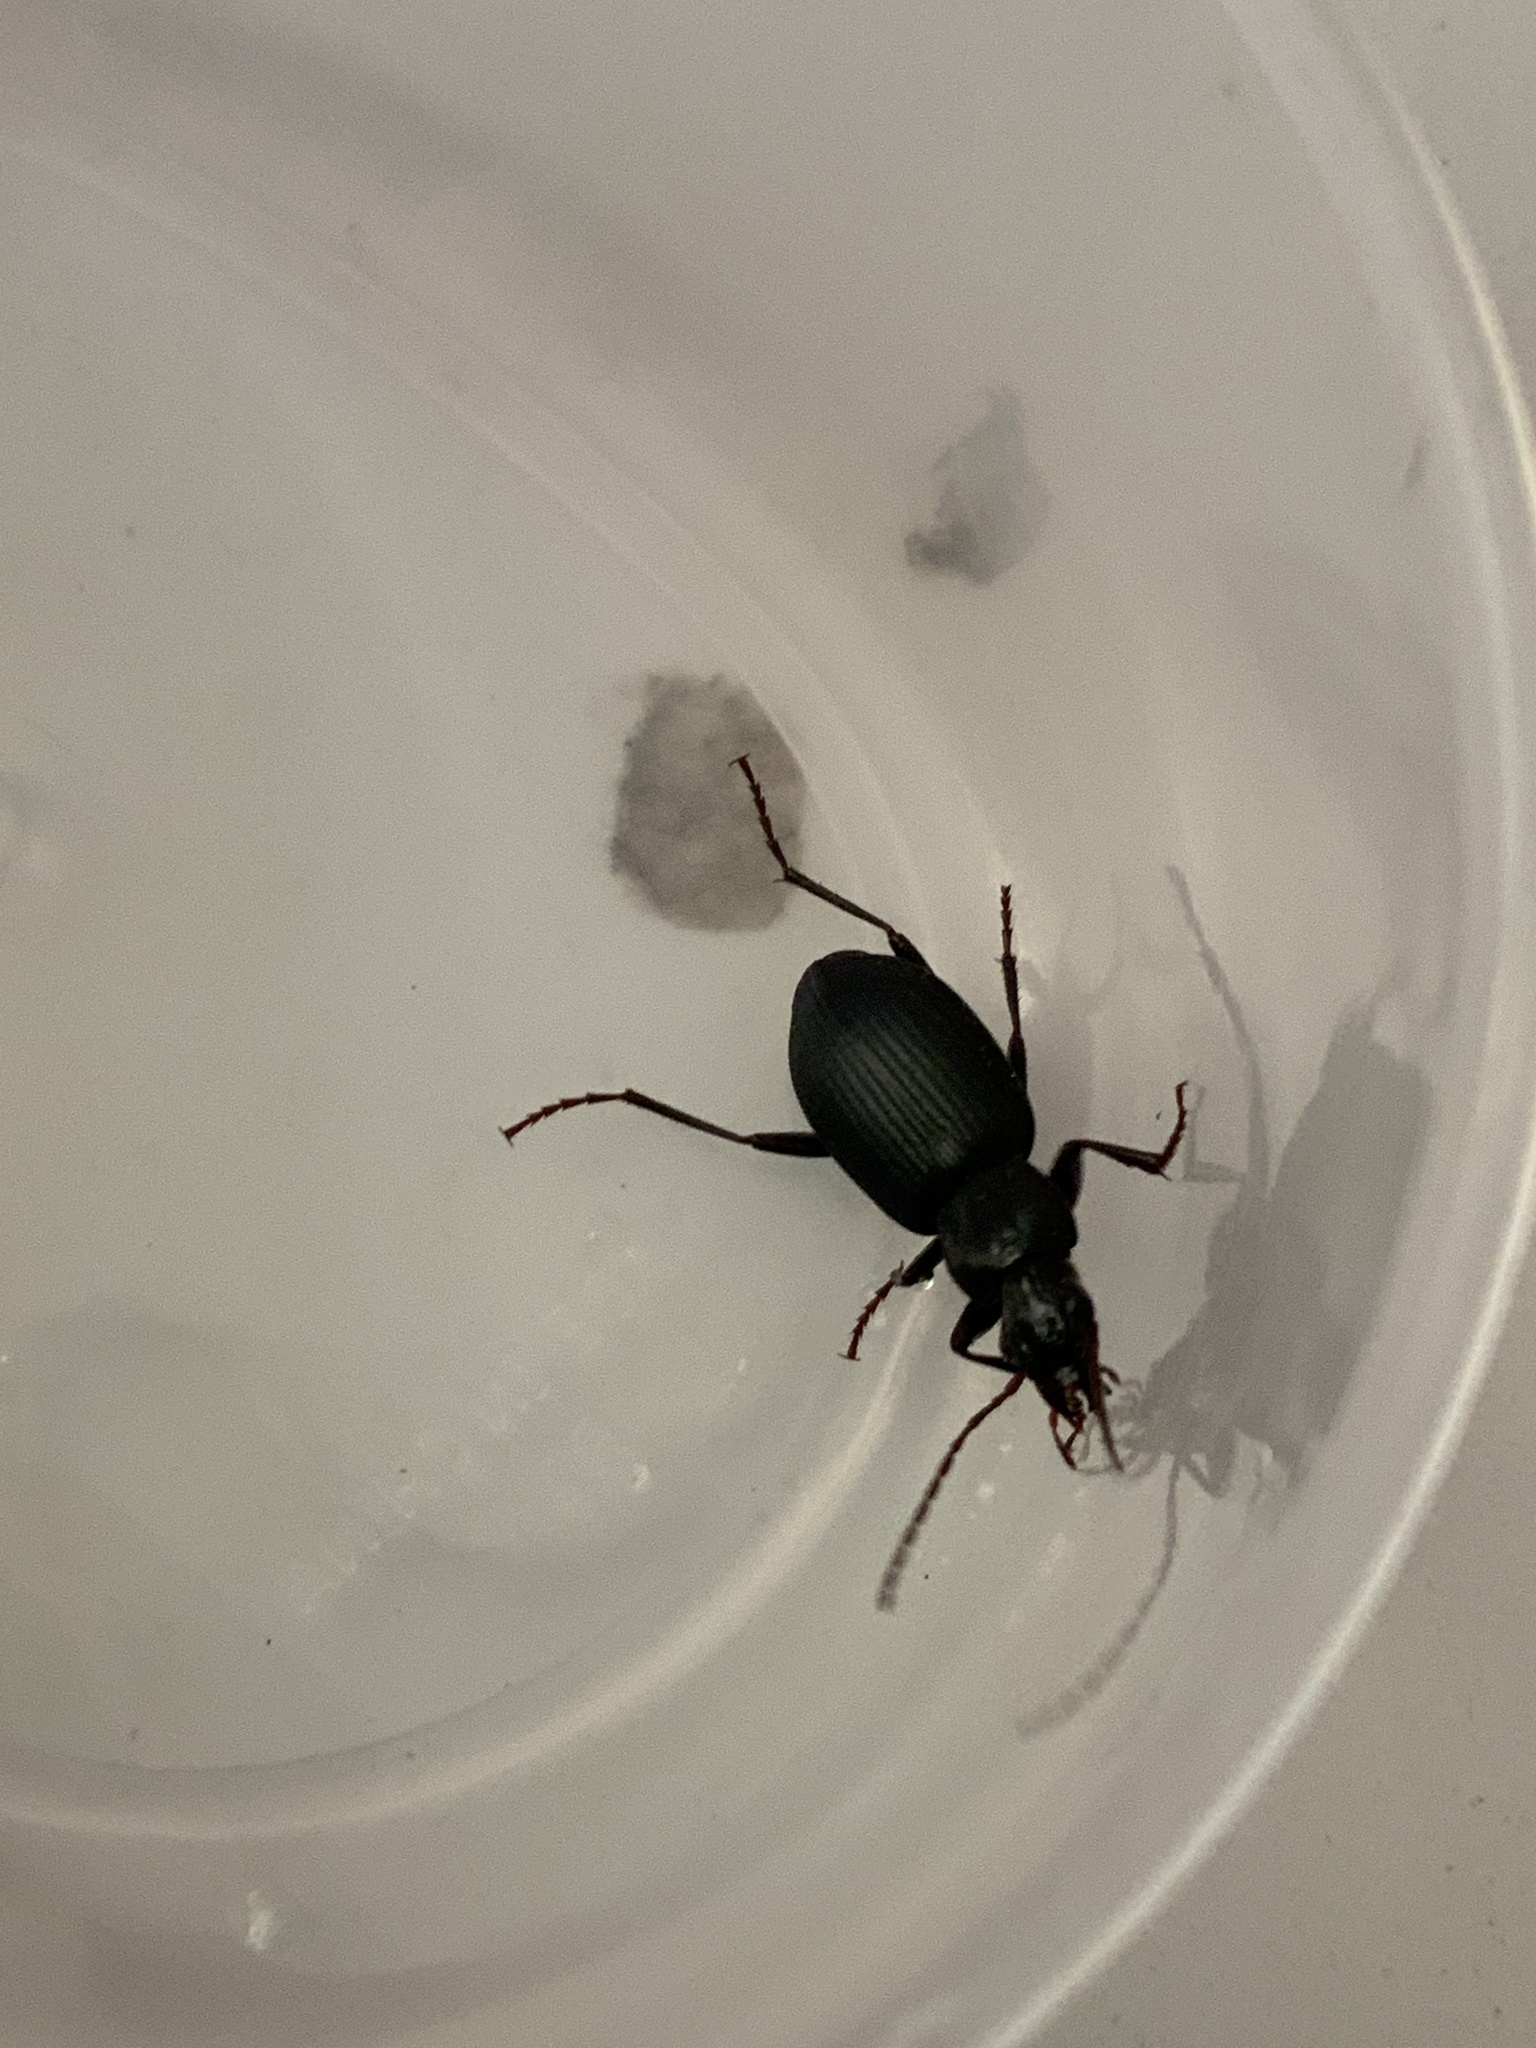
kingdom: Animalia
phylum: Arthropoda
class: Insecta
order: Coleoptera
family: Carabidae
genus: Laemostenus
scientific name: Laemostenus complanatus
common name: Cosmopolitan ground beetle
